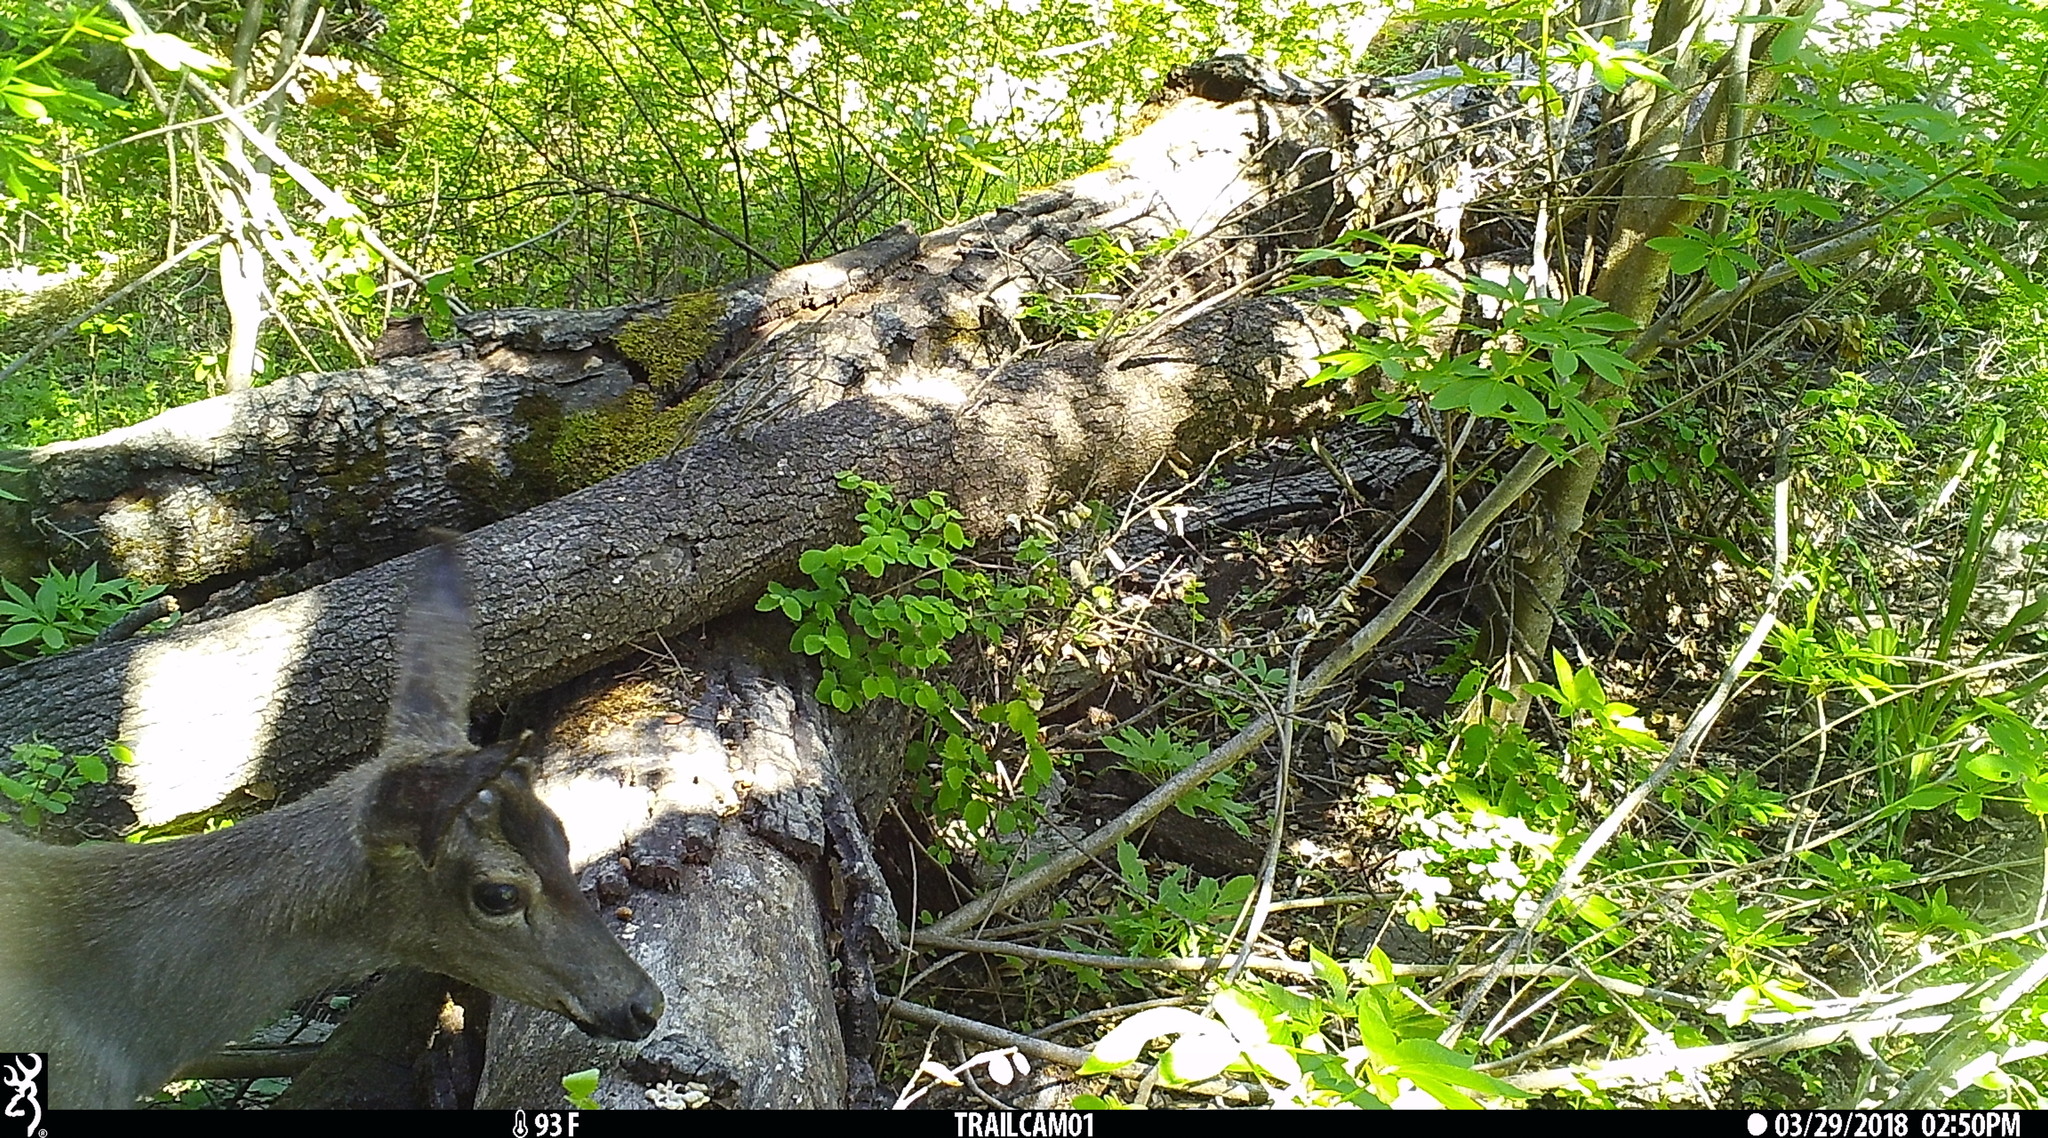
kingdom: Animalia
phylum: Chordata
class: Mammalia
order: Artiodactyla
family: Cervidae
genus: Odocoileus
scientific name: Odocoileus hemionus
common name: Mule deer
